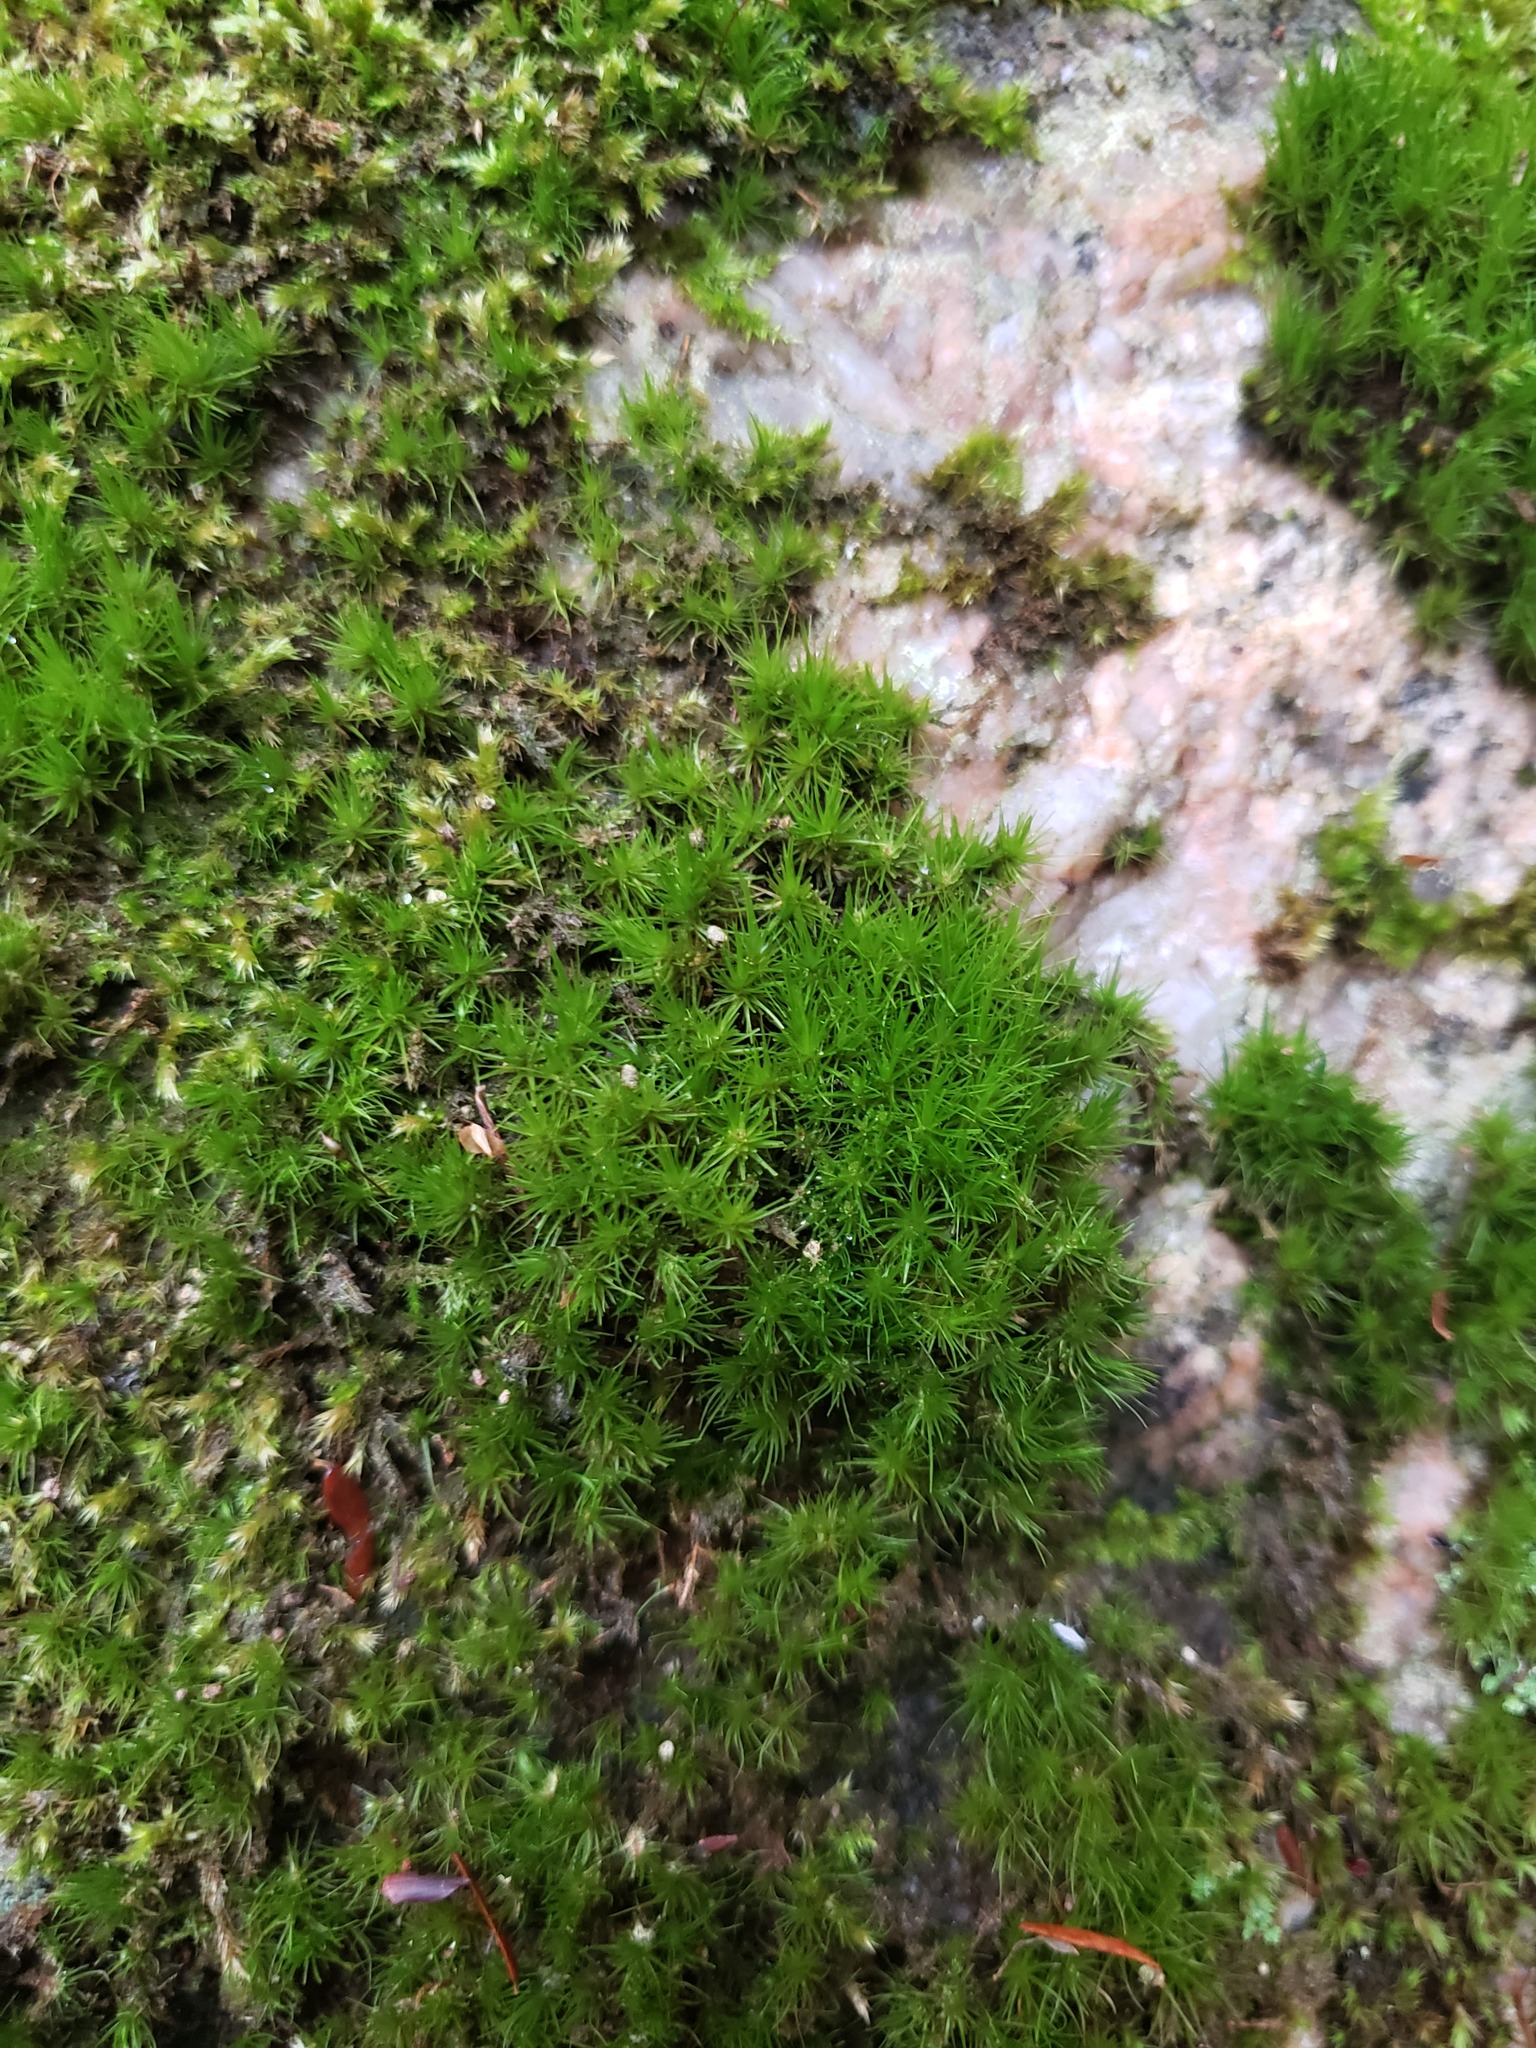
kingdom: Plantae
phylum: Bryophyta
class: Bryopsida
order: Dicranales
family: Dicranaceae
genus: Dicranum
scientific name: Dicranum viride
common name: Green broom moss
